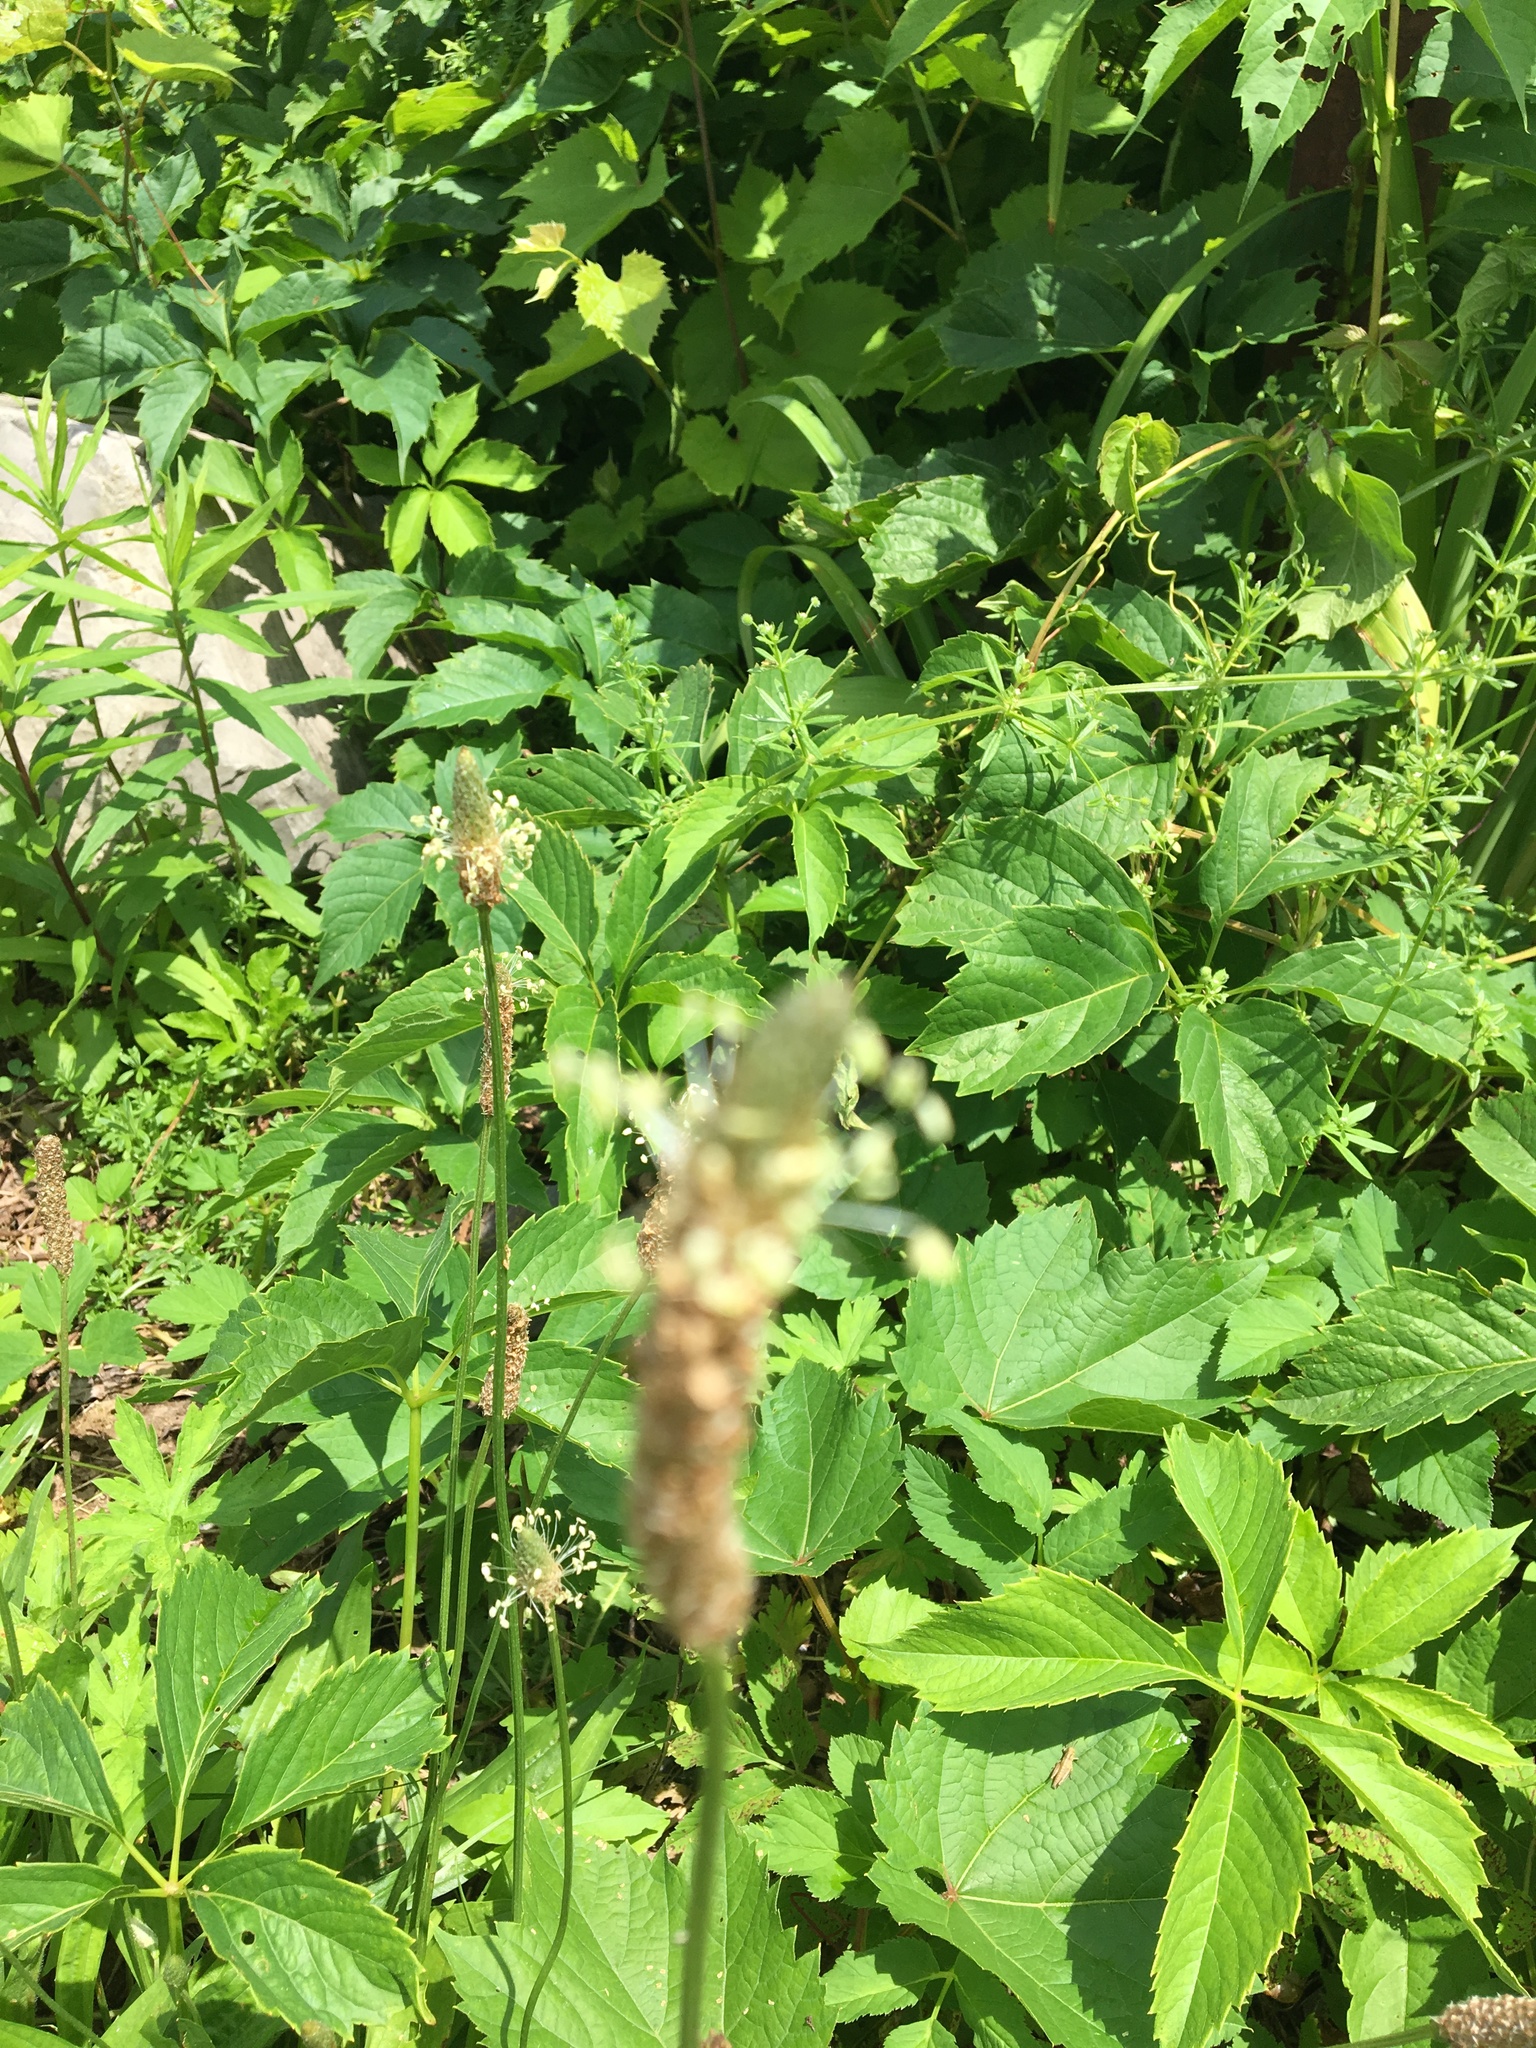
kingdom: Plantae
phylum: Tracheophyta
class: Magnoliopsida
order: Lamiales
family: Plantaginaceae
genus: Plantago
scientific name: Plantago lanceolata
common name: Ribwort plantain
